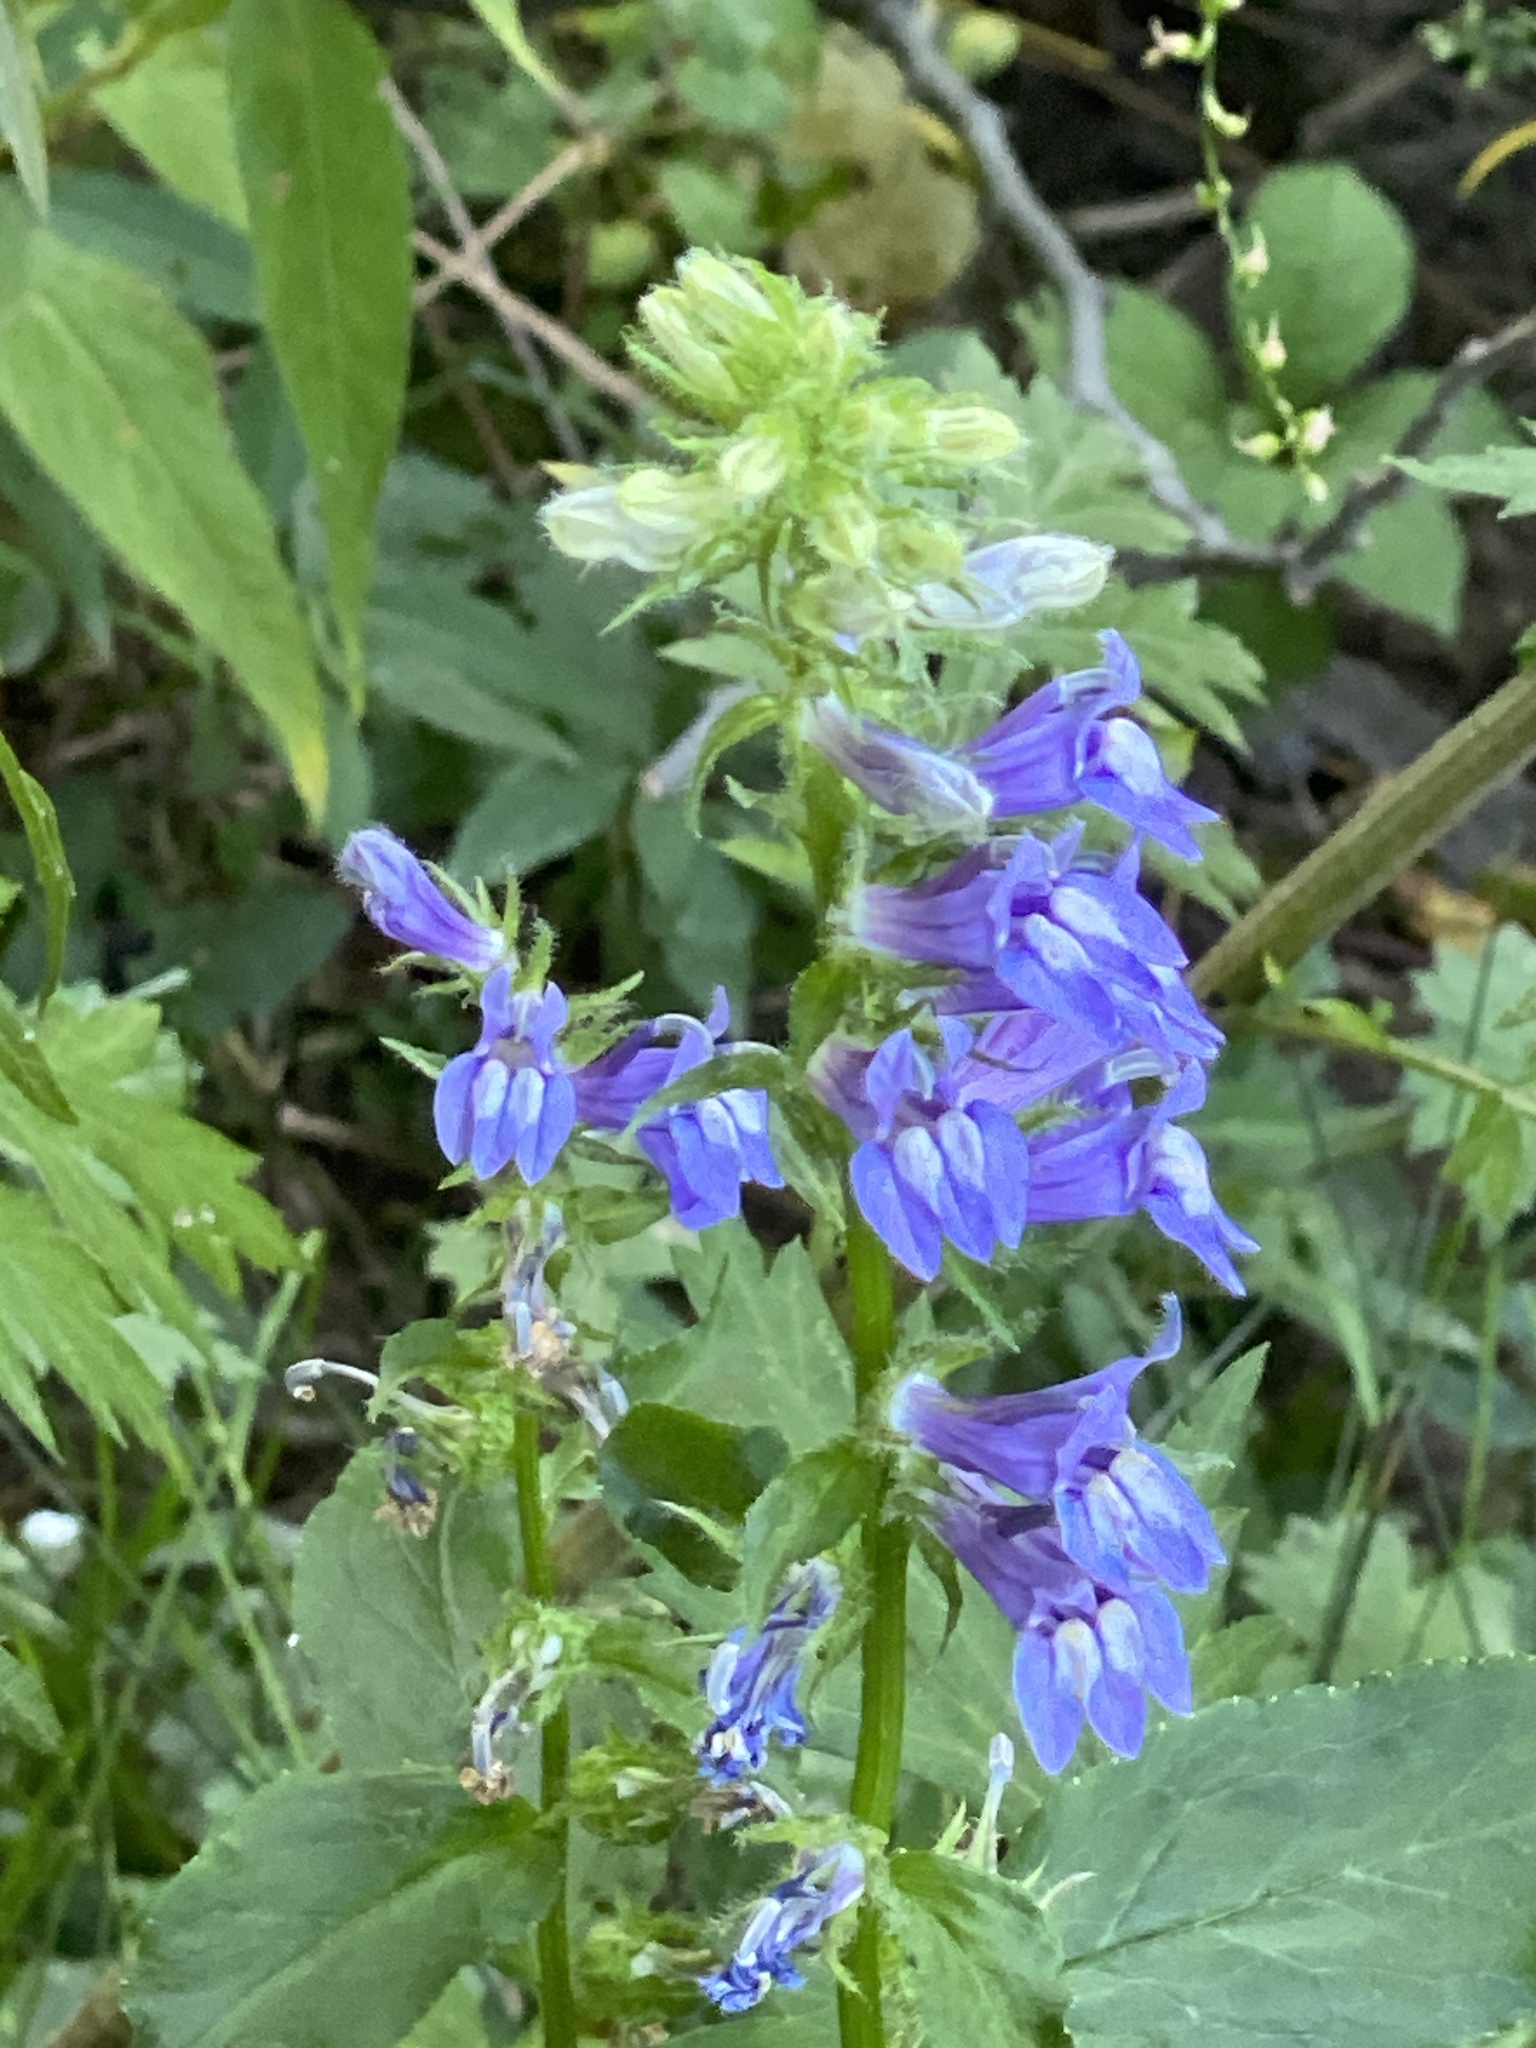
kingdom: Plantae
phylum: Tracheophyta
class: Magnoliopsida
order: Asterales
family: Campanulaceae
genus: Lobelia
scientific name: Lobelia siphilitica
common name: Great lobelia
